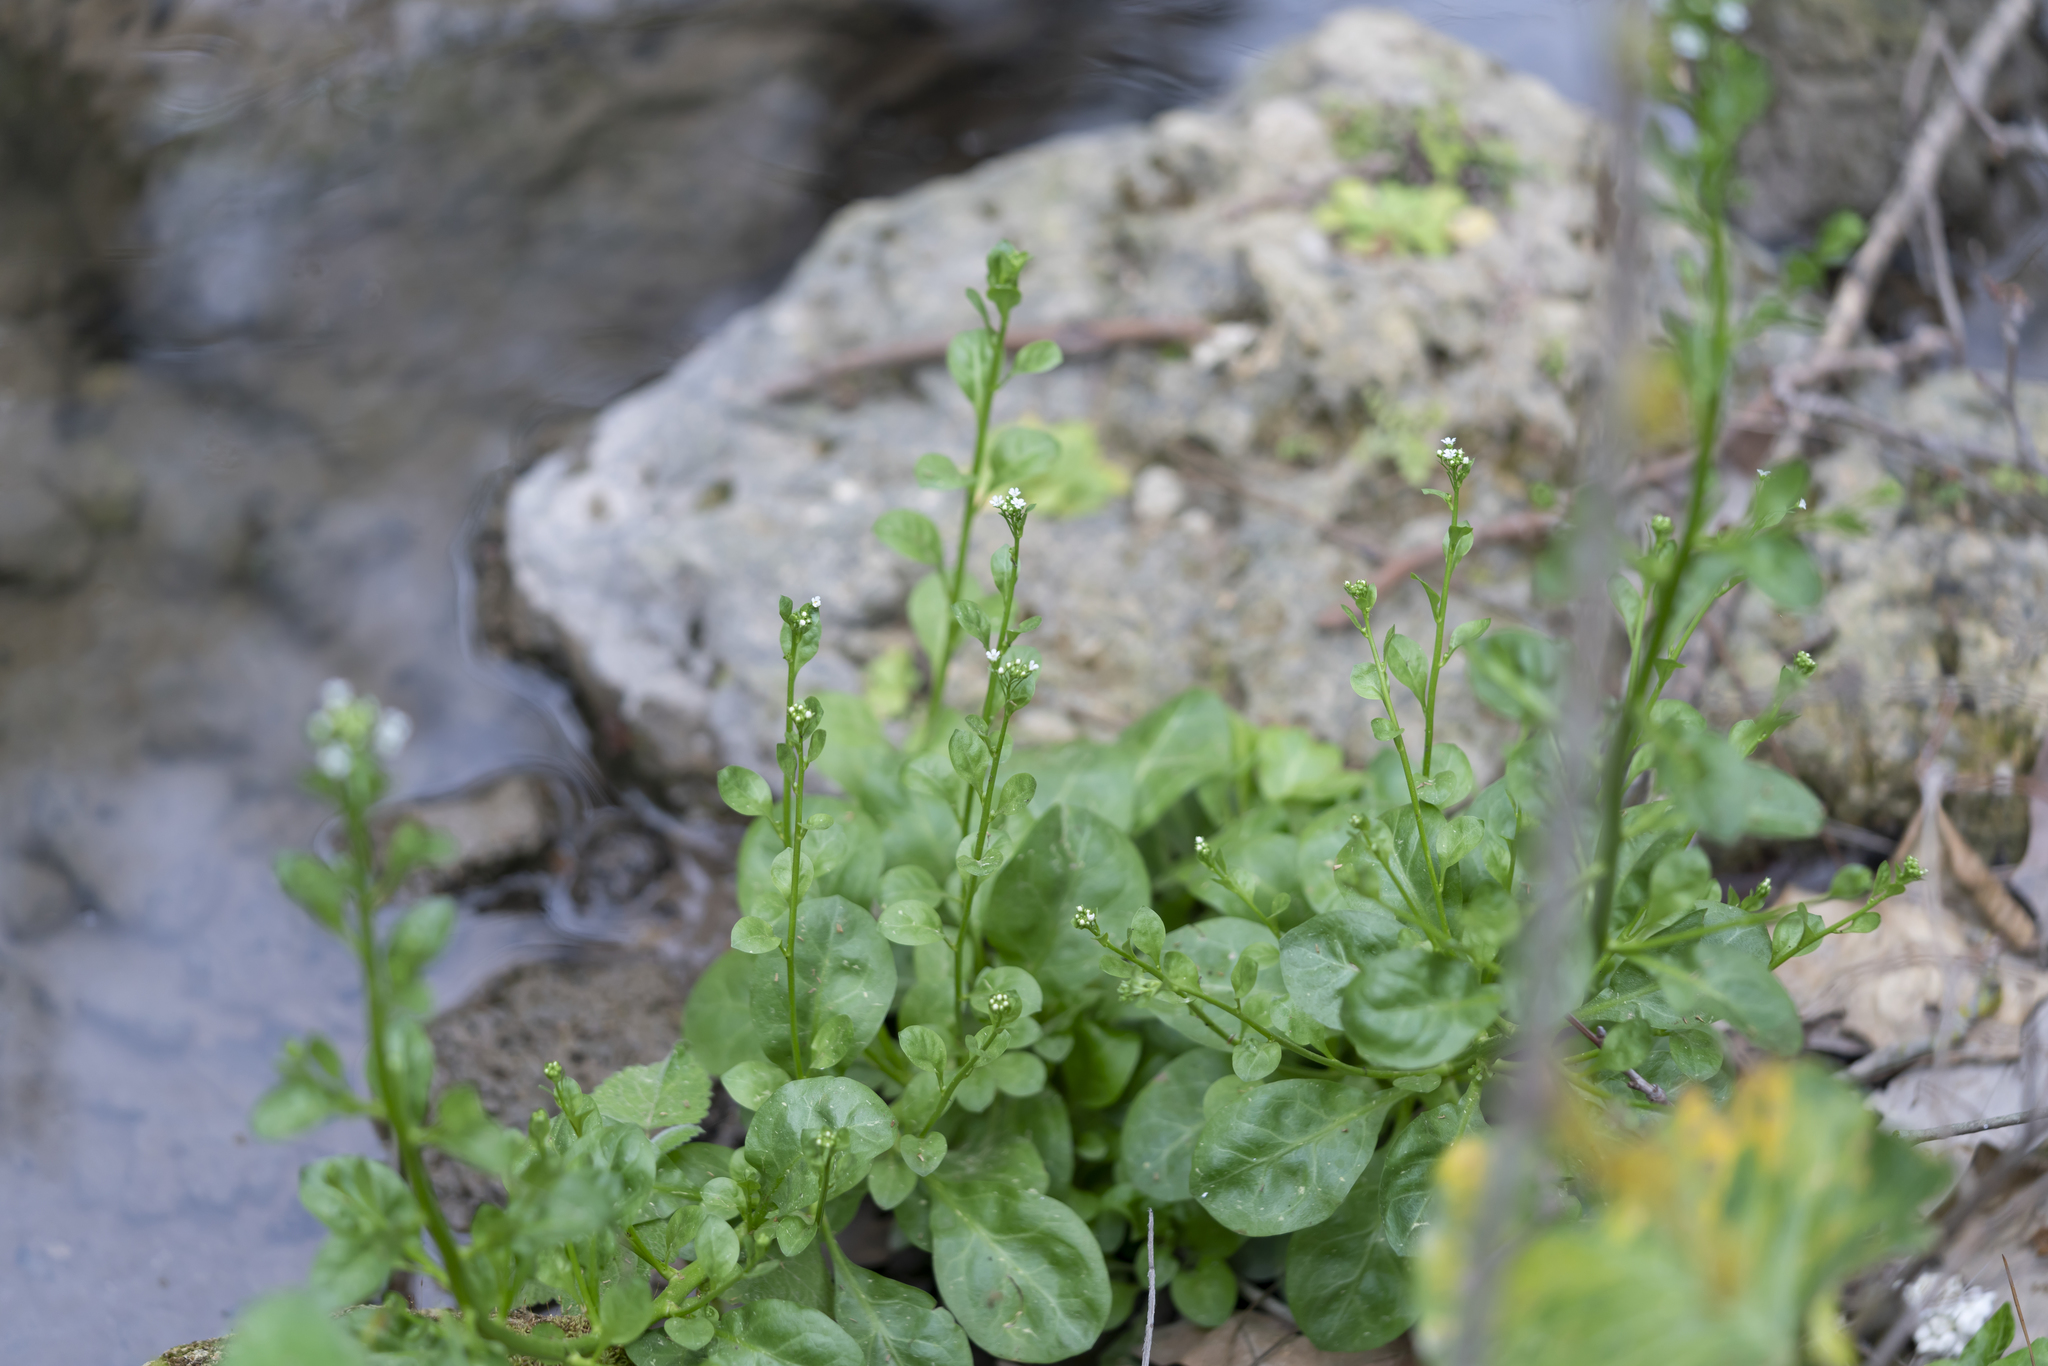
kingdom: Plantae
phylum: Tracheophyta
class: Magnoliopsida
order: Ericales
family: Primulaceae
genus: Samolus
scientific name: Samolus valerandi
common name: Brookweed
